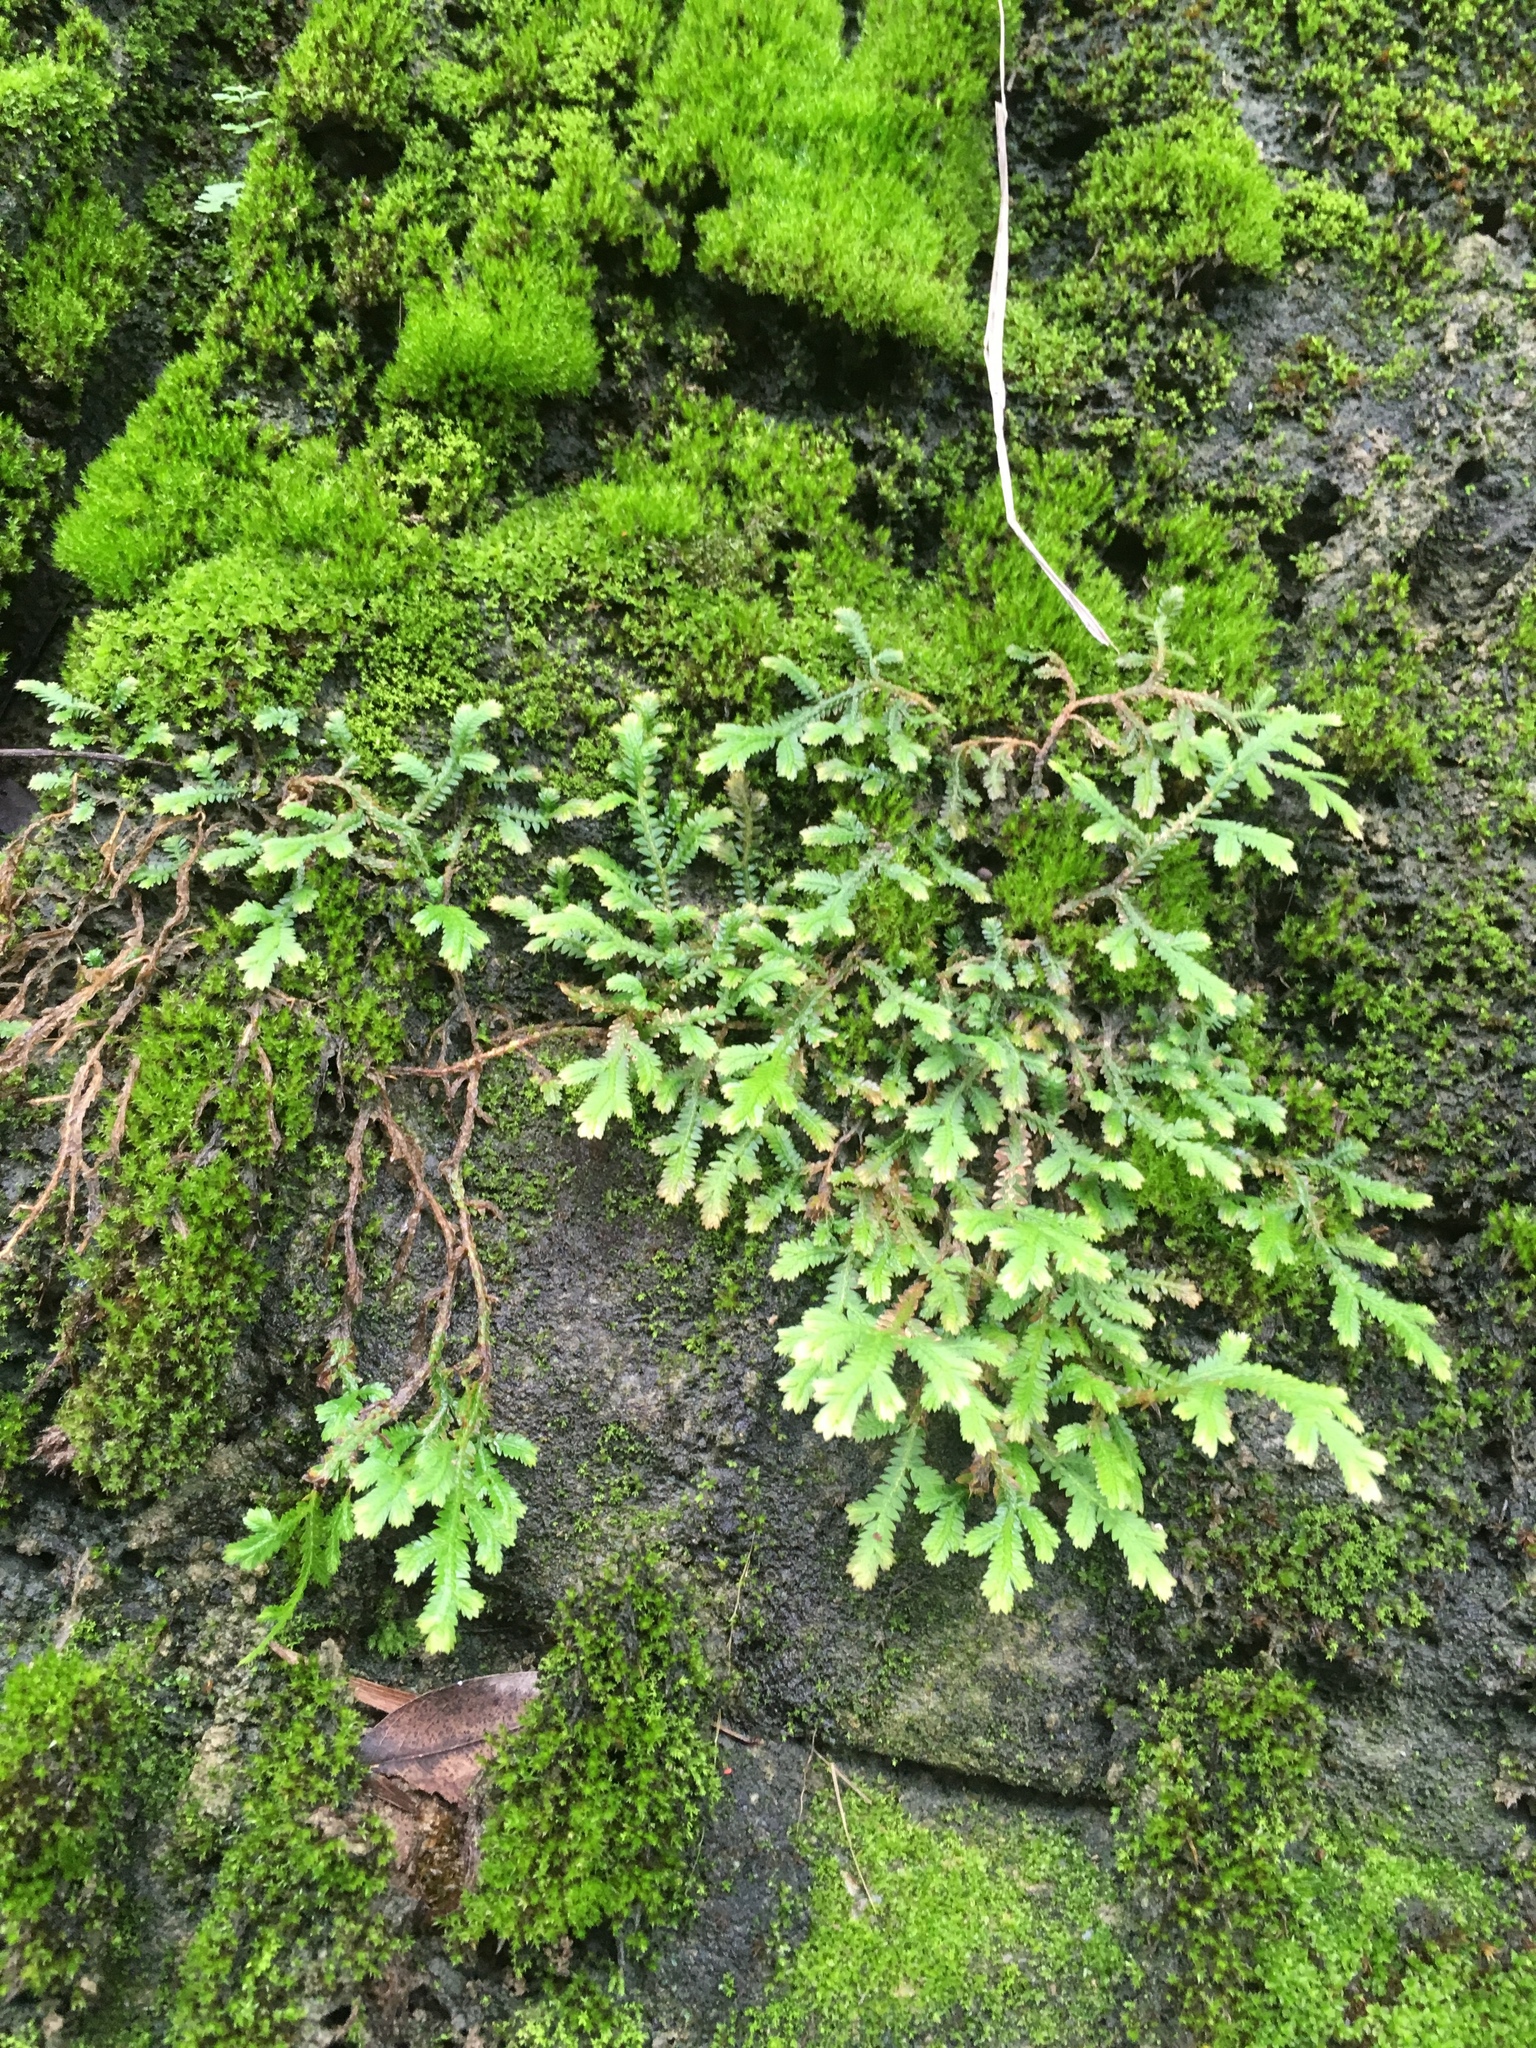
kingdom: Plantae
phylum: Tracheophyta
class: Lycopodiopsida
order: Selaginellales
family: Selaginellaceae
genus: Selaginella
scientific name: Selaginella repanda
